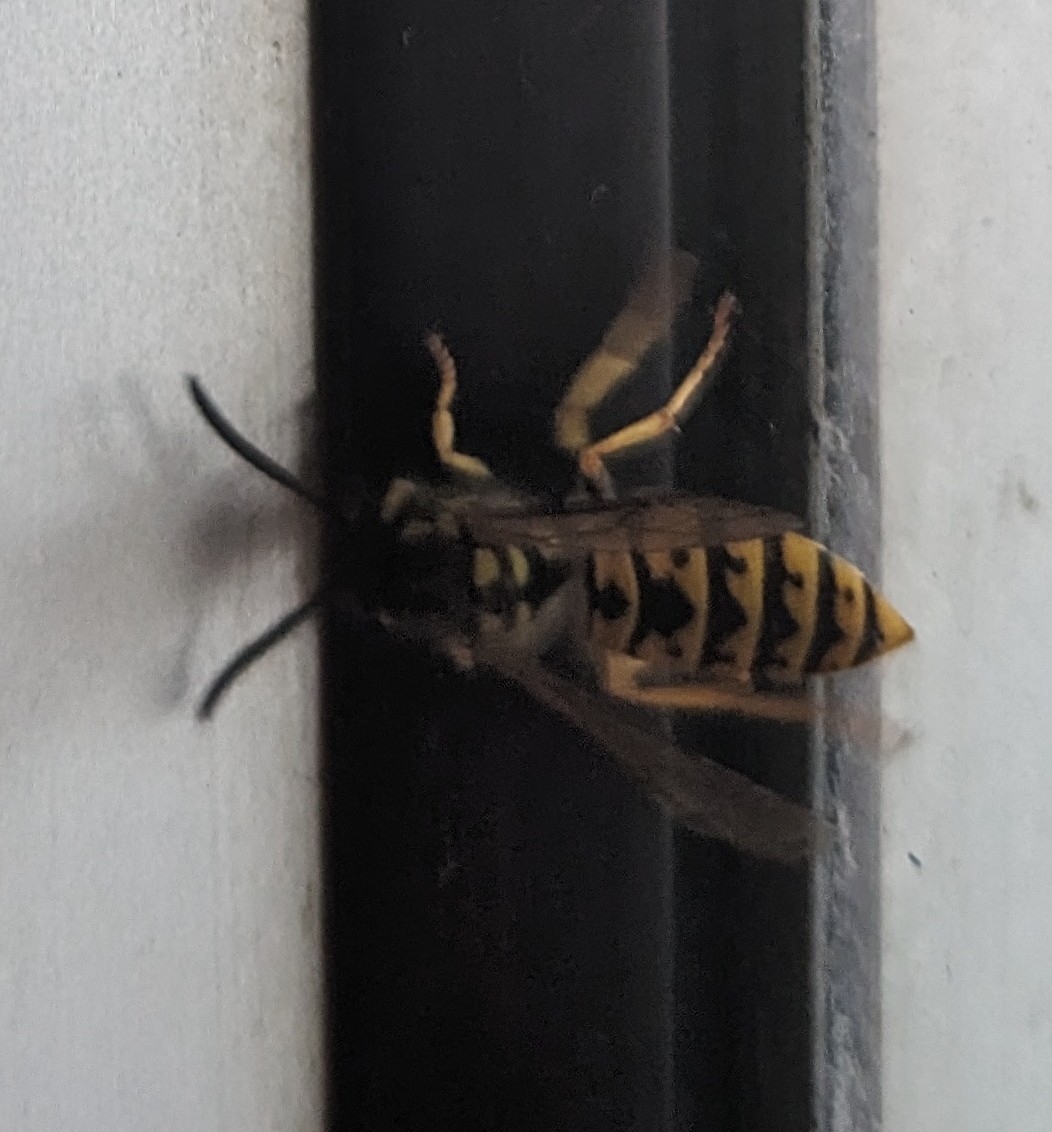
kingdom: Animalia
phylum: Arthropoda
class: Insecta
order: Hymenoptera
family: Vespidae
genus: Vespula
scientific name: Vespula germanica
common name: German wasp
